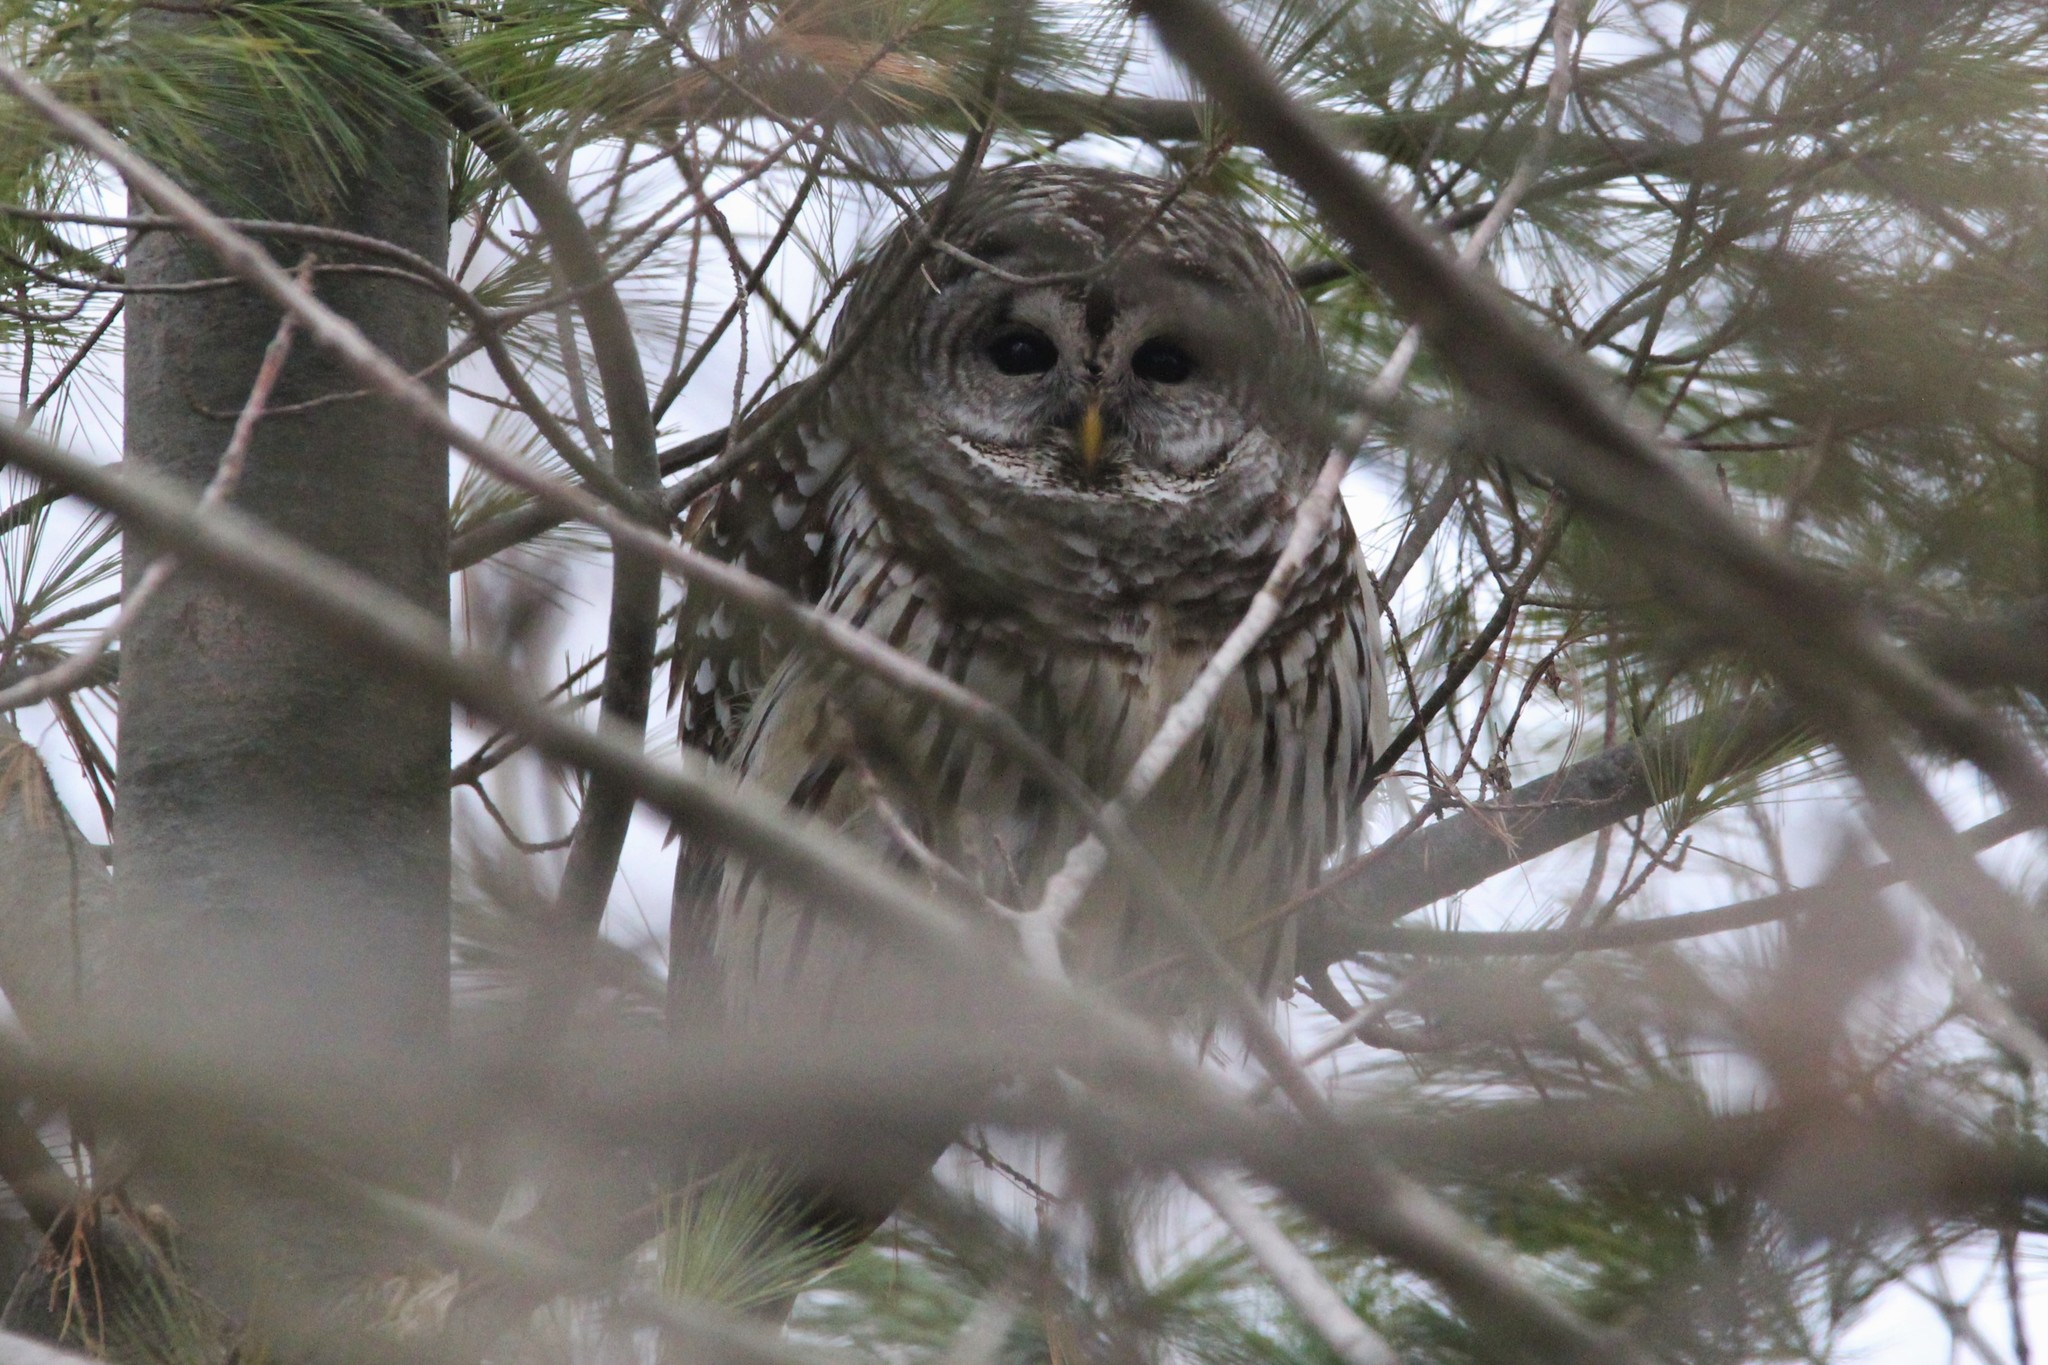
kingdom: Animalia
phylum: Chordata
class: Aves
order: Strigiformes
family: Strigidae
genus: Strix
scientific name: Strix varia
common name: Barred owl
